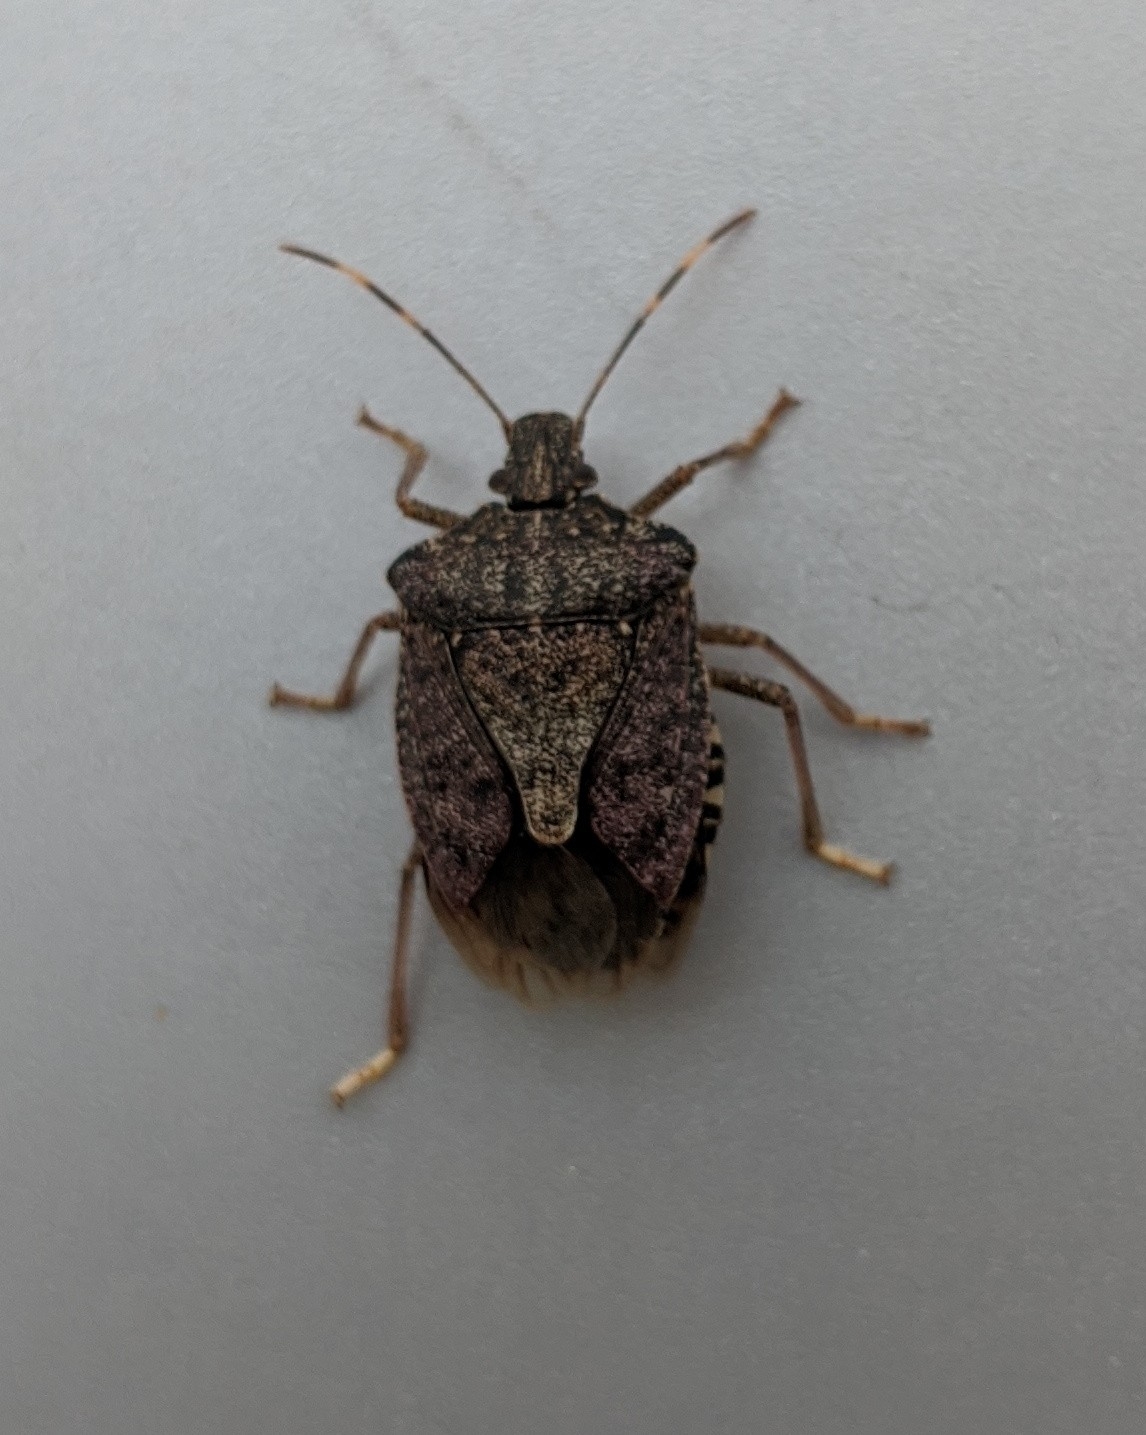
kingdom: Animalia
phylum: Arthropoda
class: Insecta
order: Hemiptera
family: Pentatomidae
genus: Halyomorpha
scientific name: Halyomorpha halys
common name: Brown marmorated stink bug
